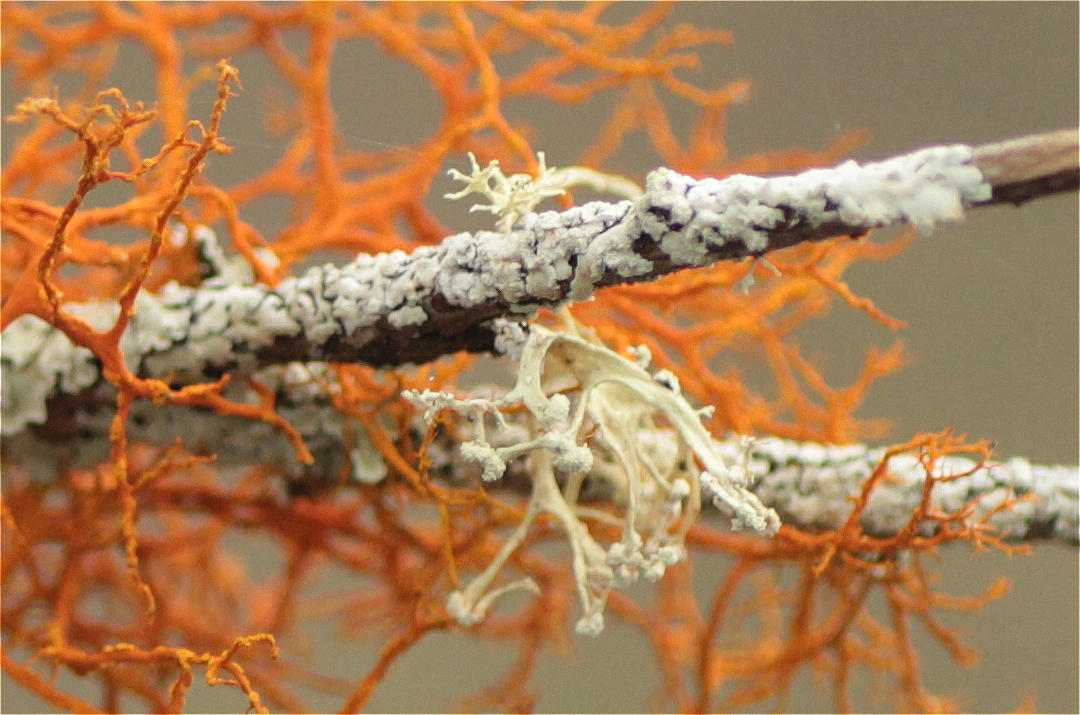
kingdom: Fungi
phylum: Ascomycota
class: Lecanoromycetes
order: Teloschistales
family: Teloschistaceae
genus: Teloschistes
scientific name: Teloschistes flavicans
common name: Golden hair-lichen
